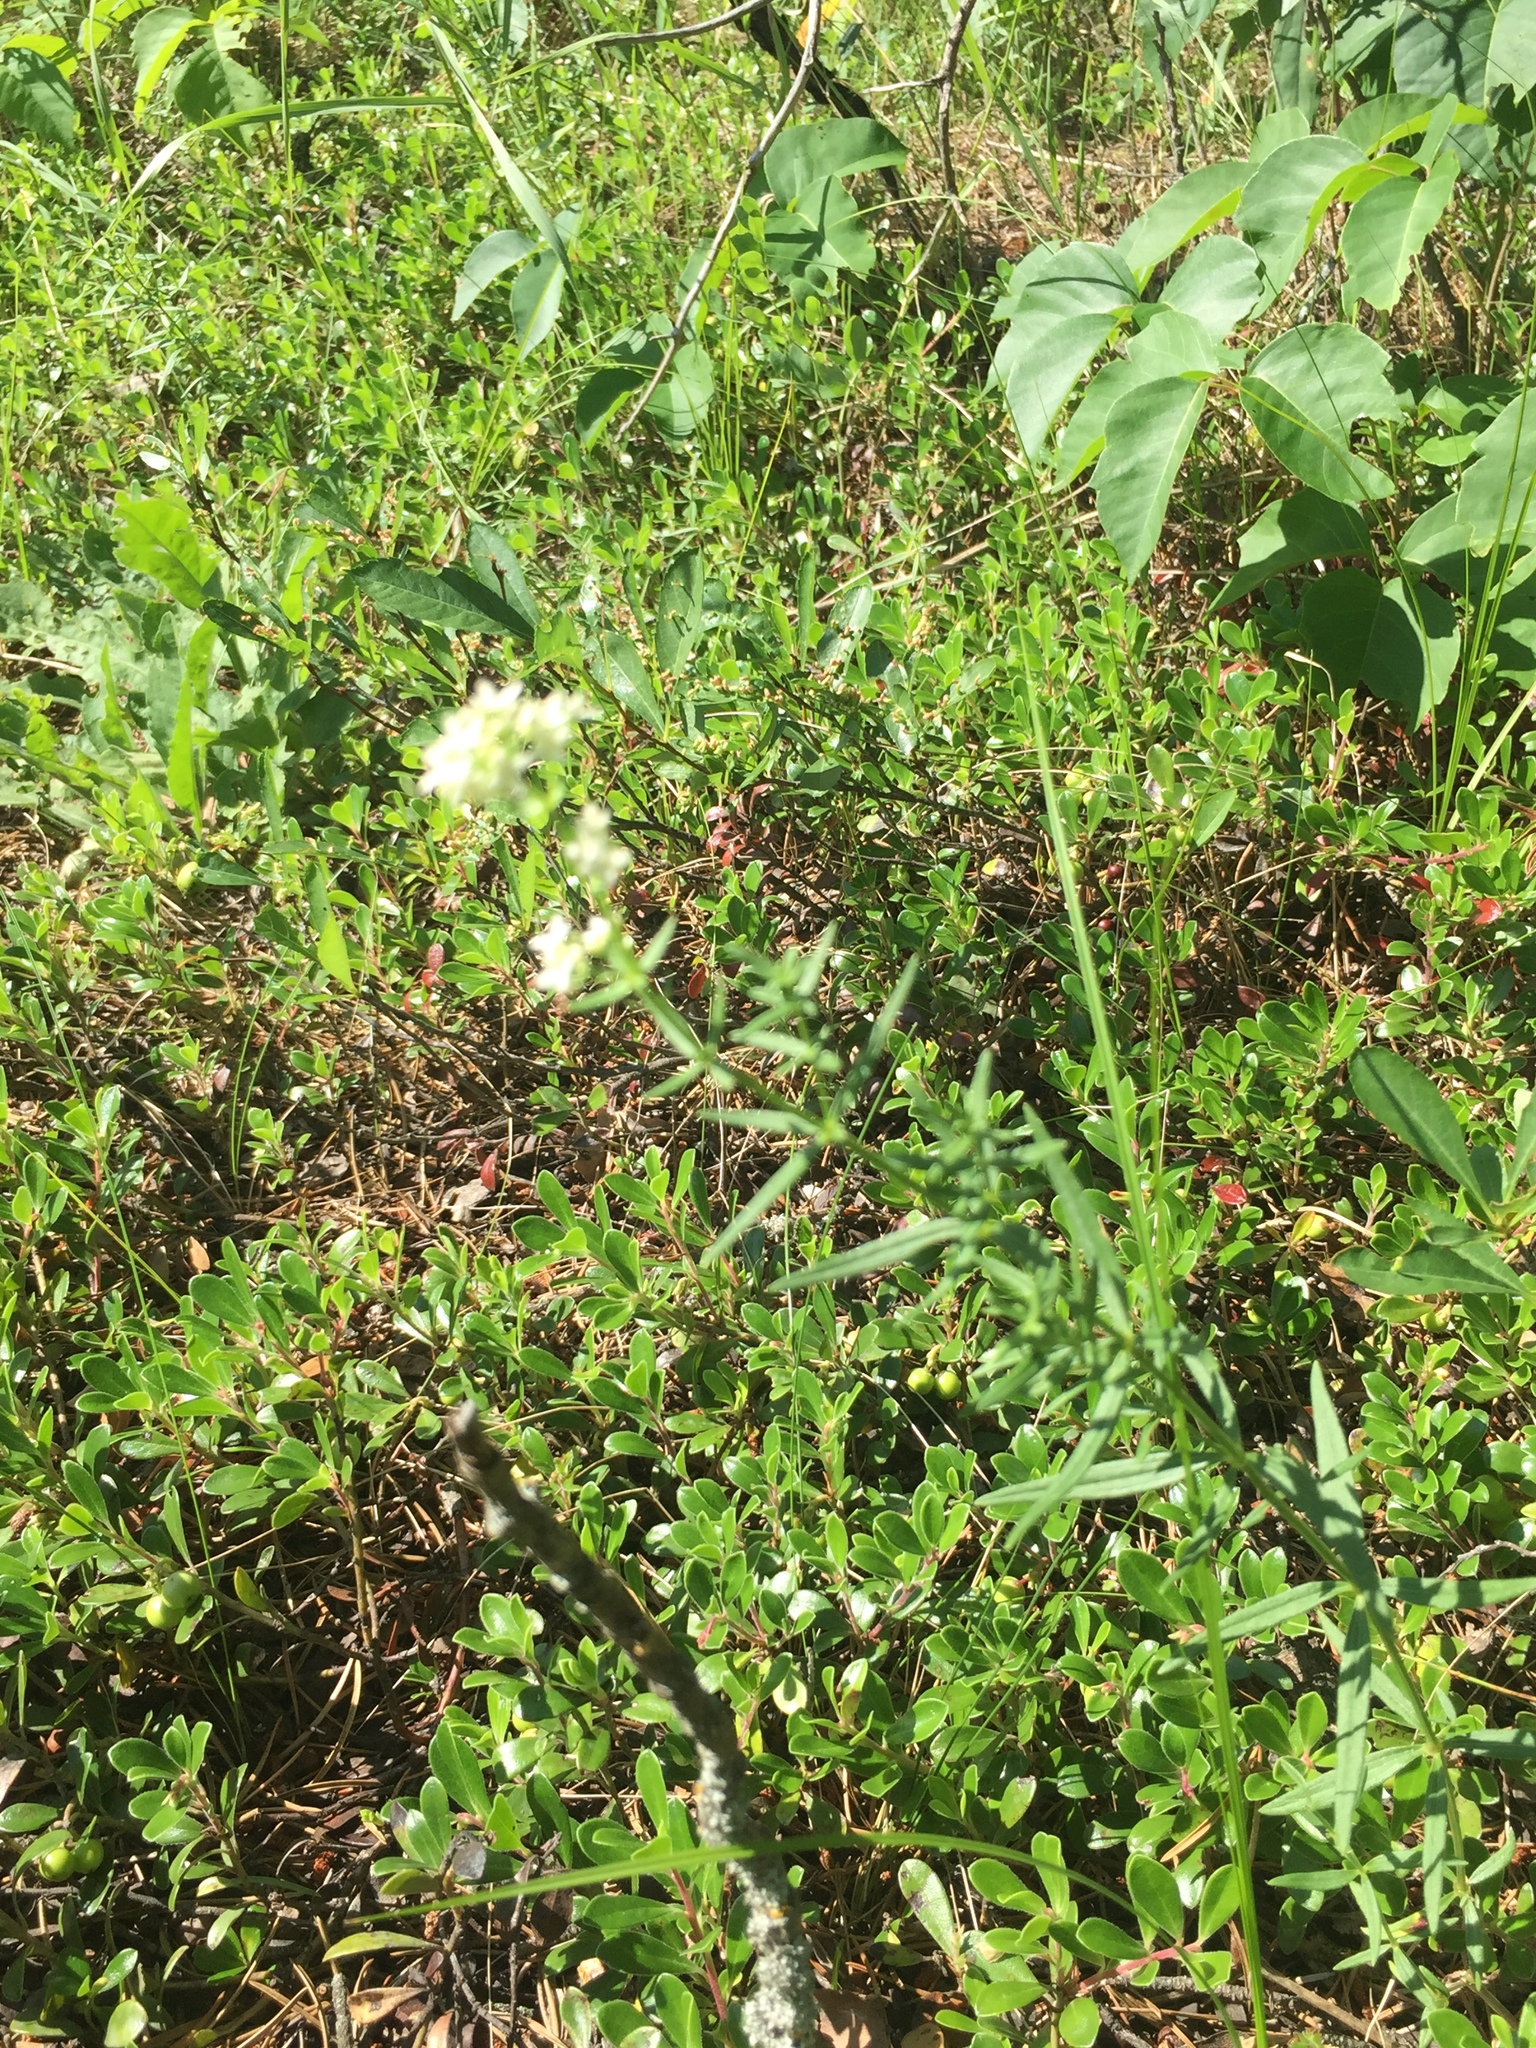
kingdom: Plantae
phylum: Tracheophyta
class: Magnoliopsida
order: Gentianales
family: Rubiaceae
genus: Galium
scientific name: Galium boreale
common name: Northern bedstraw
